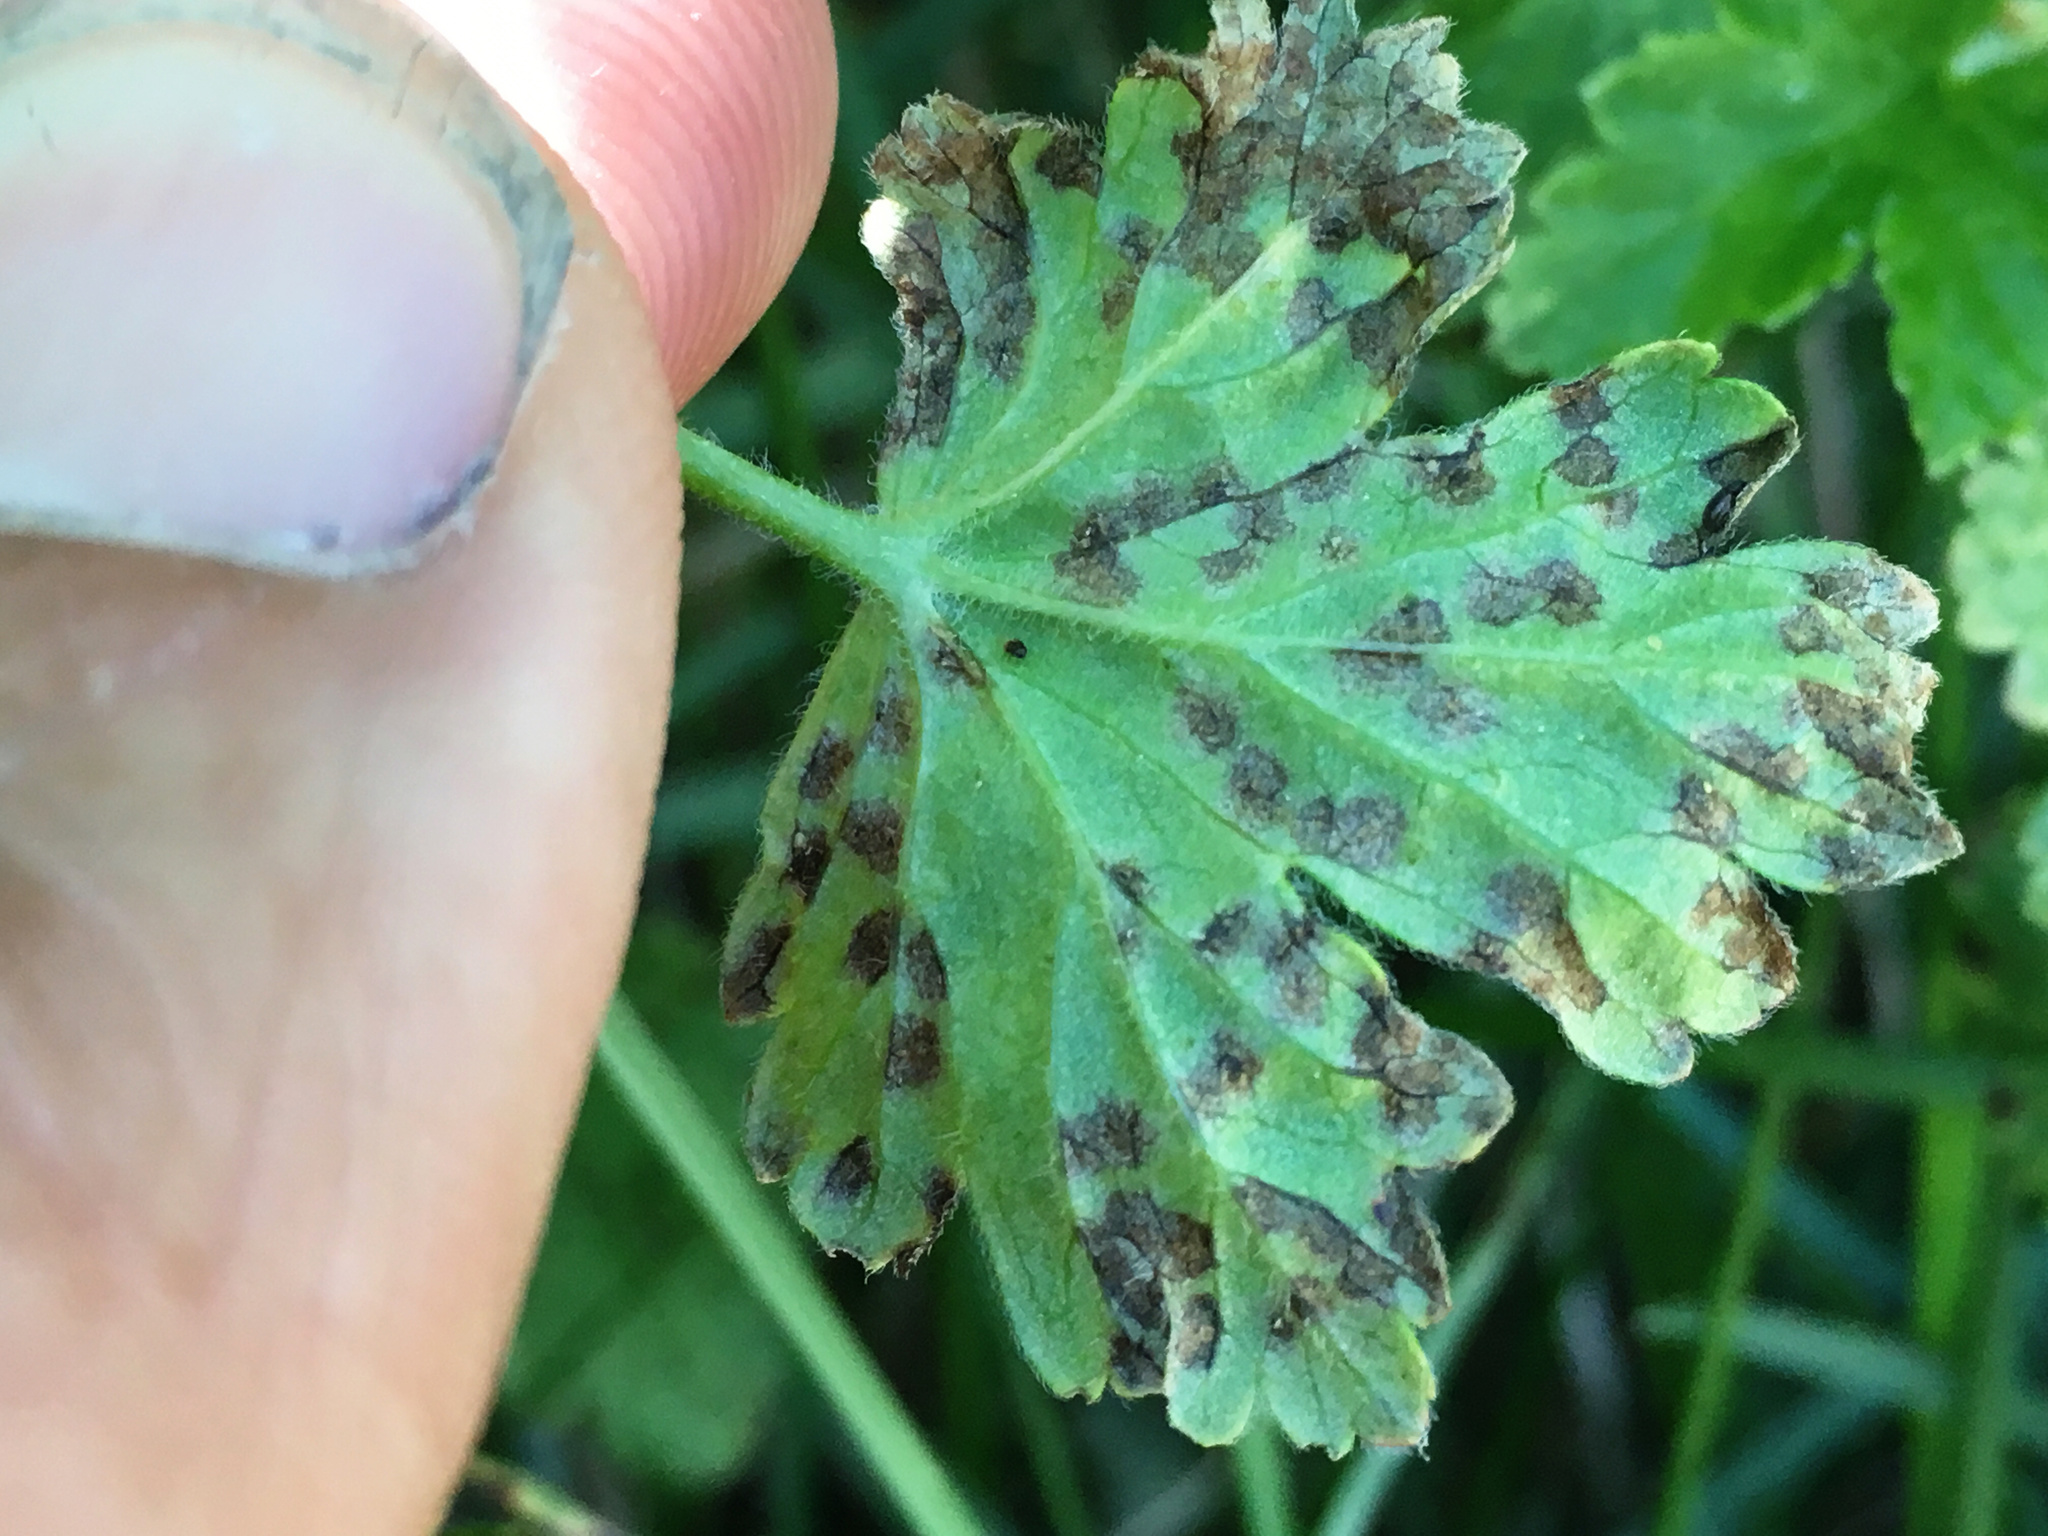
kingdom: Fungi
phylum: Ascomycota
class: Leotiomycetes
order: Helotiales
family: Drepanopezizaceae
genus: Drepanopeziza
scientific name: Drepanopeziza ribis
